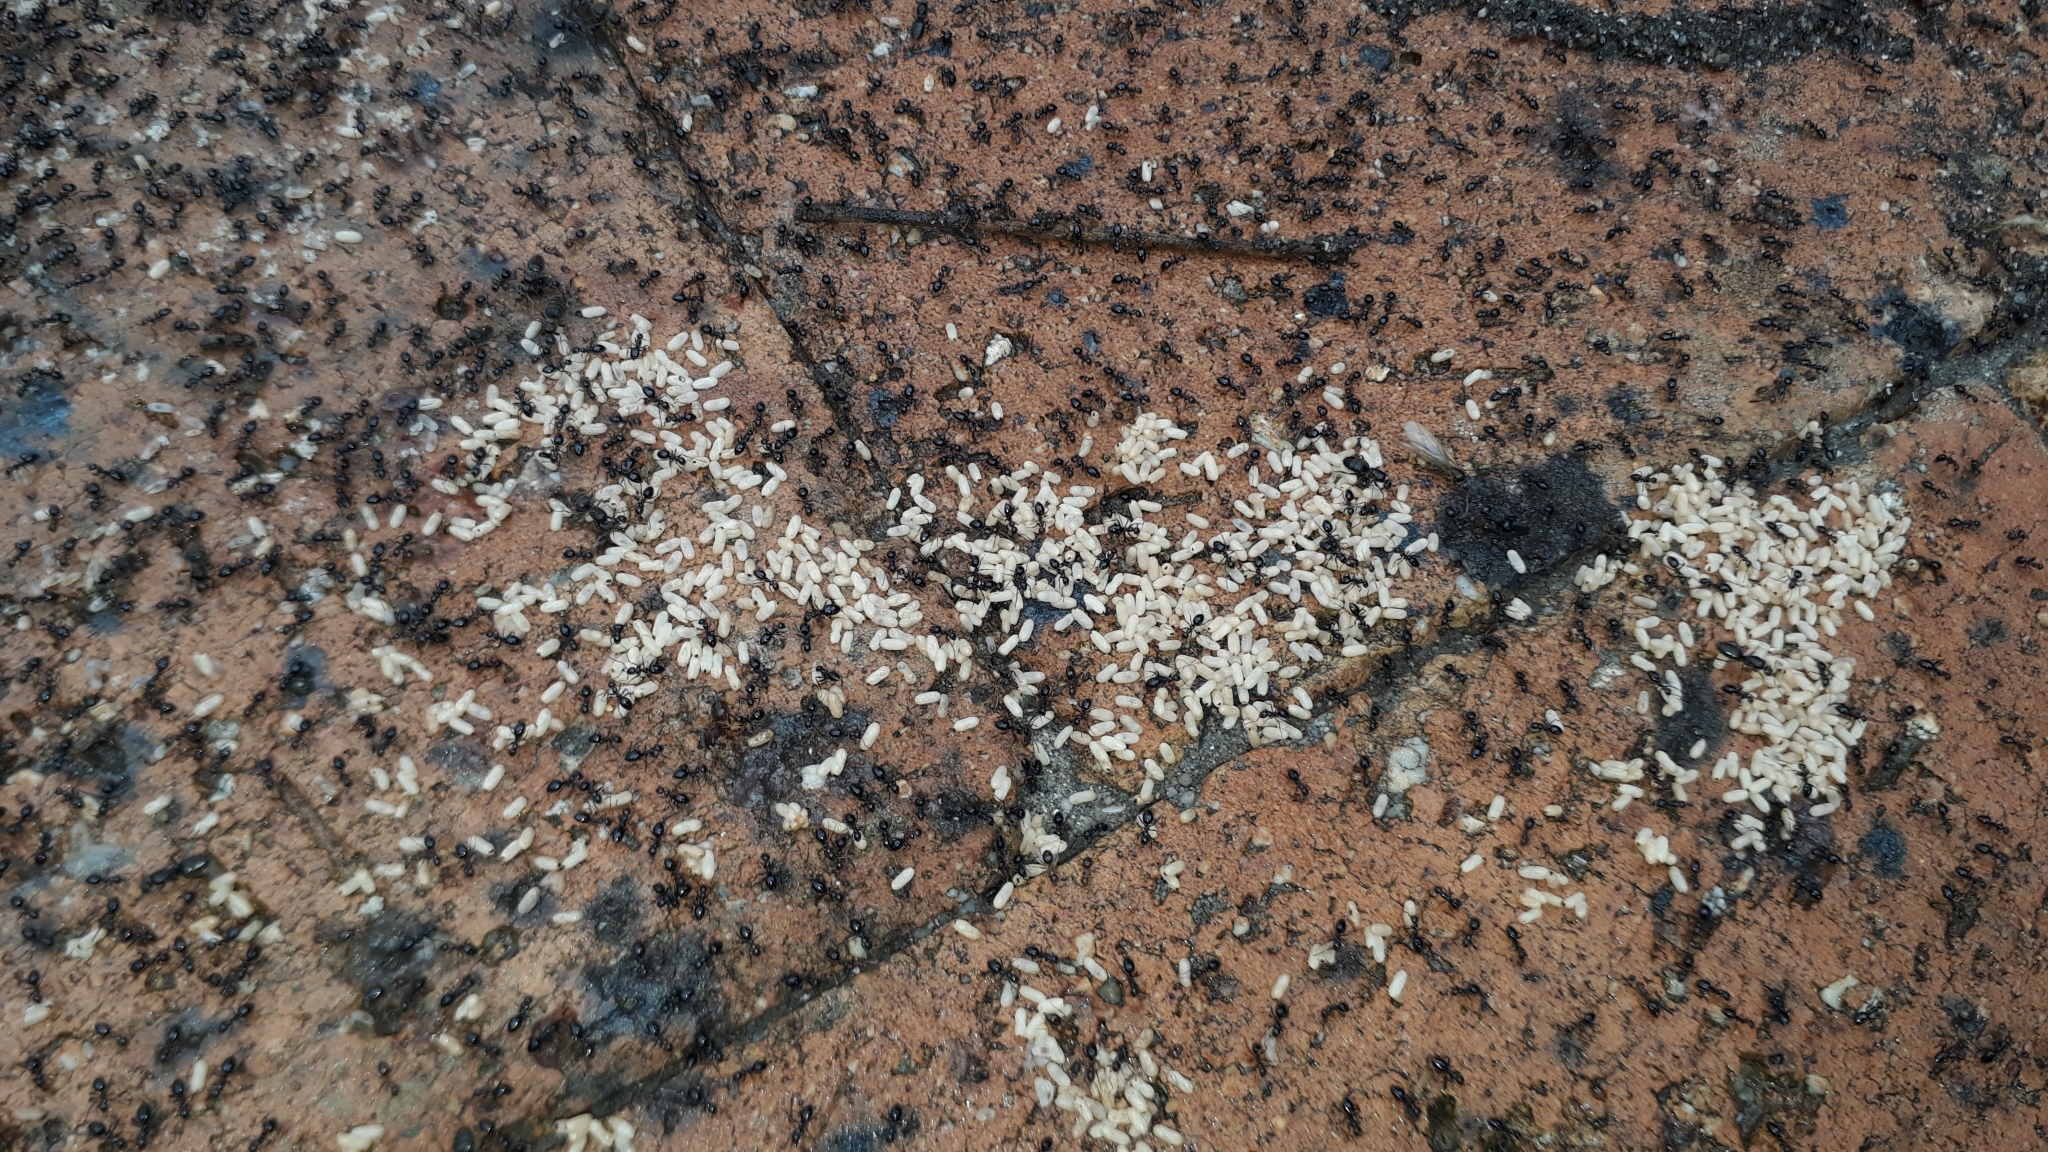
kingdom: Animalia
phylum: Arthropoda
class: Insecta
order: Hymenoptera
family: Formicidae
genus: Lepisiota
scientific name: Lepisiota capensis
